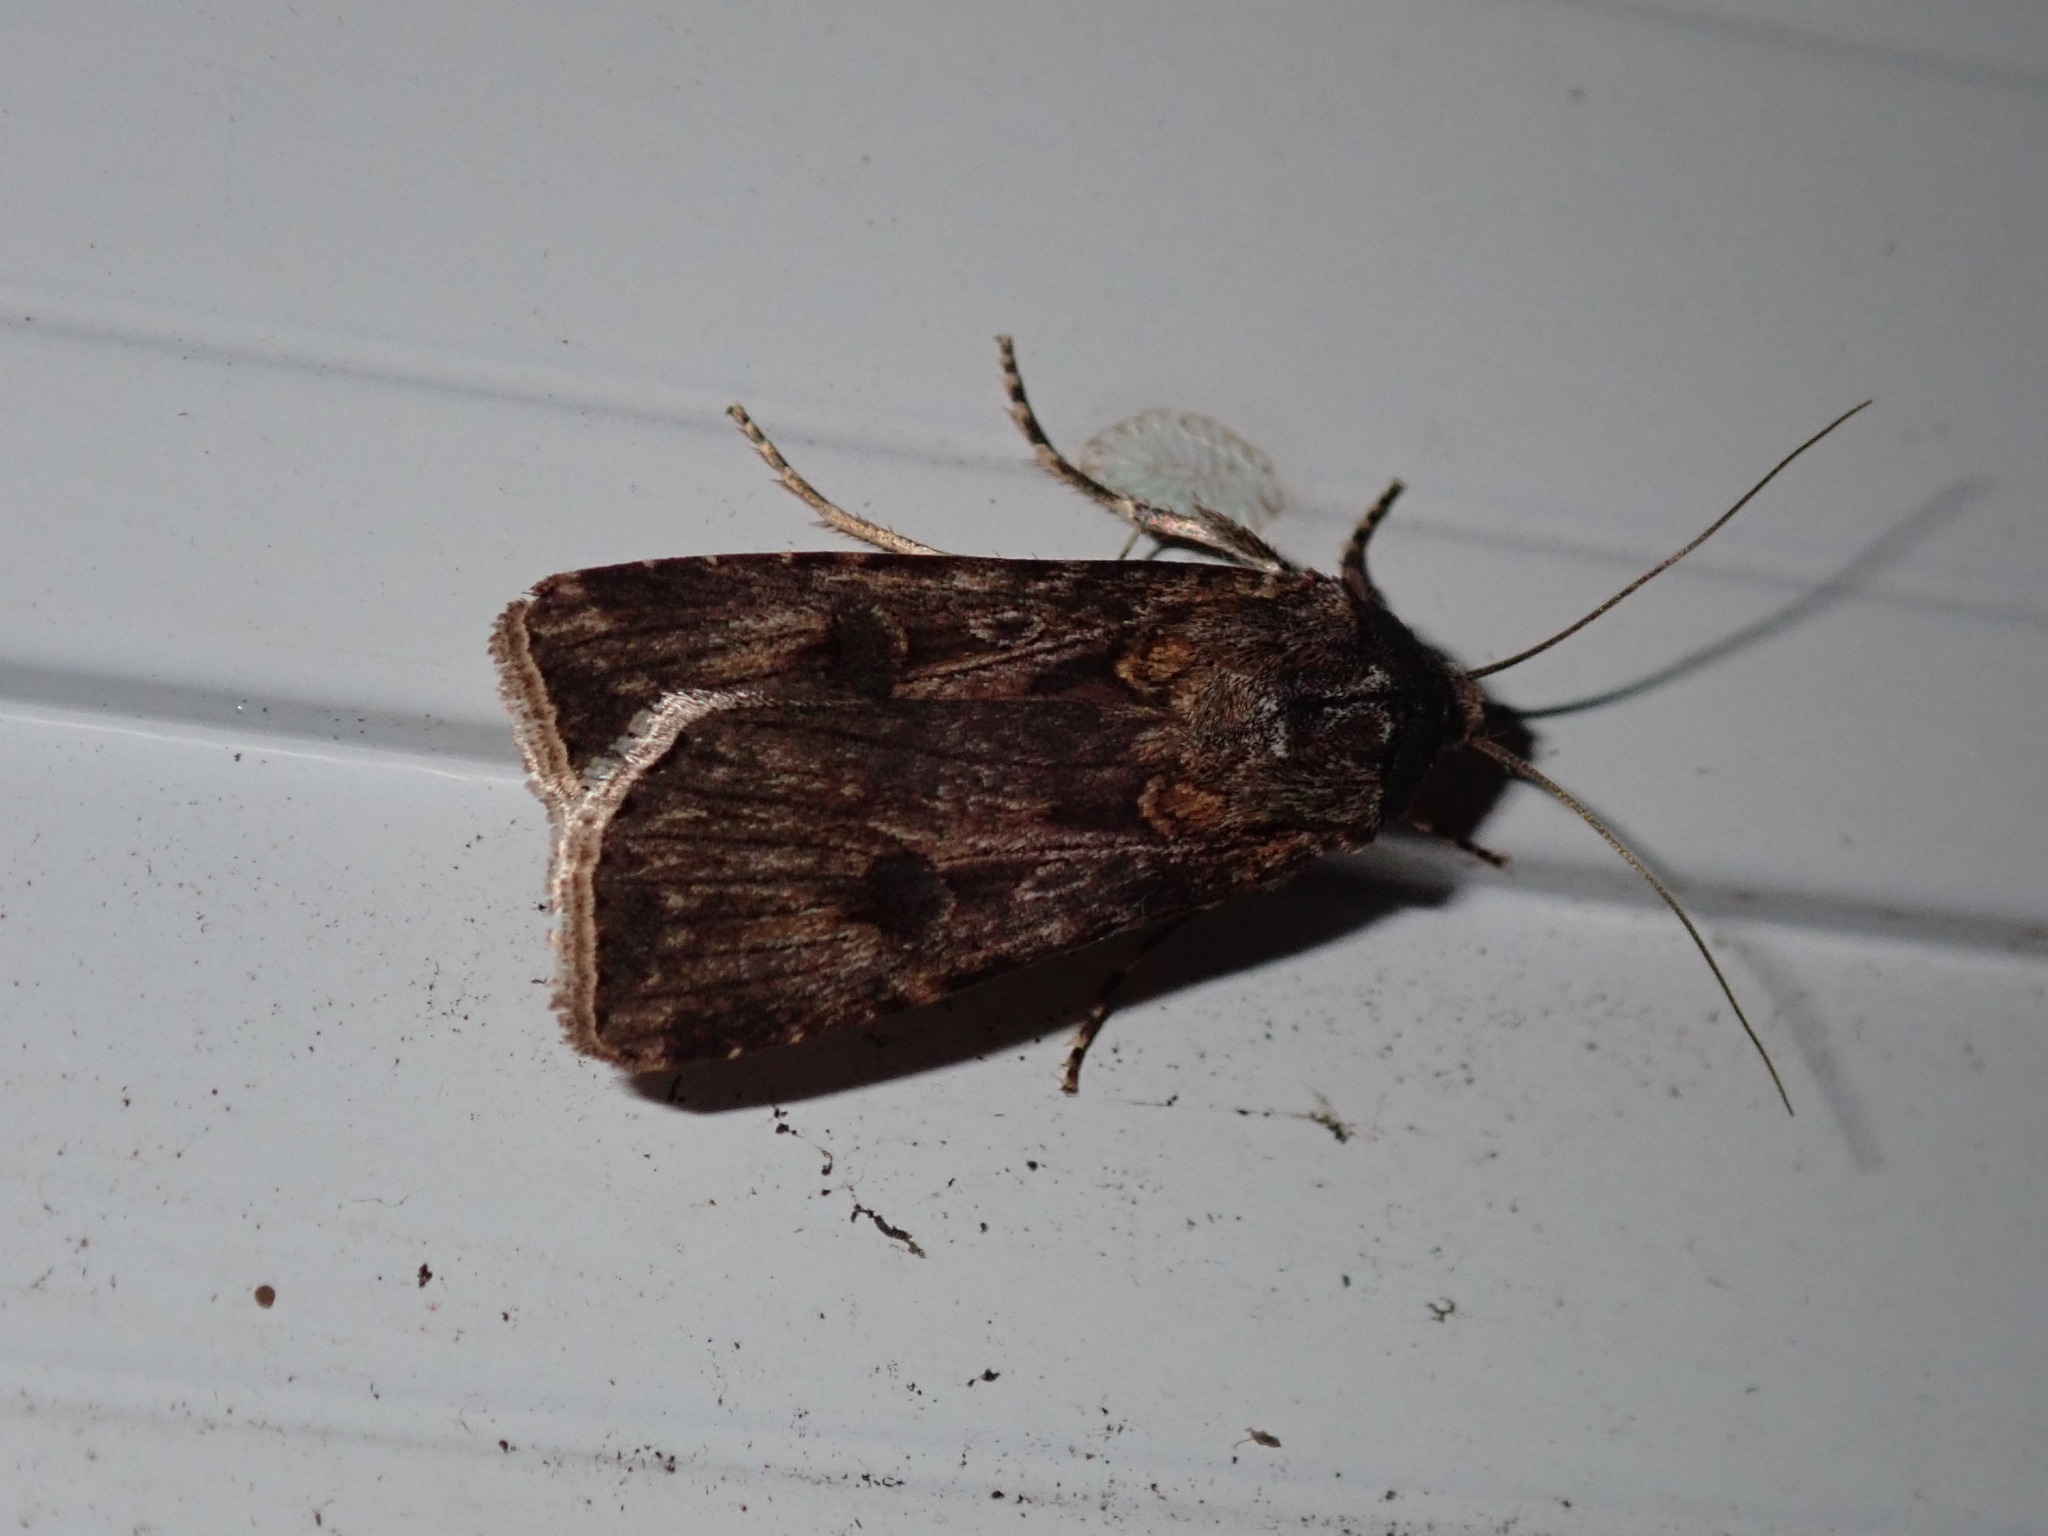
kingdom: Animalia
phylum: Arthropoda
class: Insecta
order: Lepidoptera
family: Noctuidae
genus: Agrotis
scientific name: Agrotis munda
